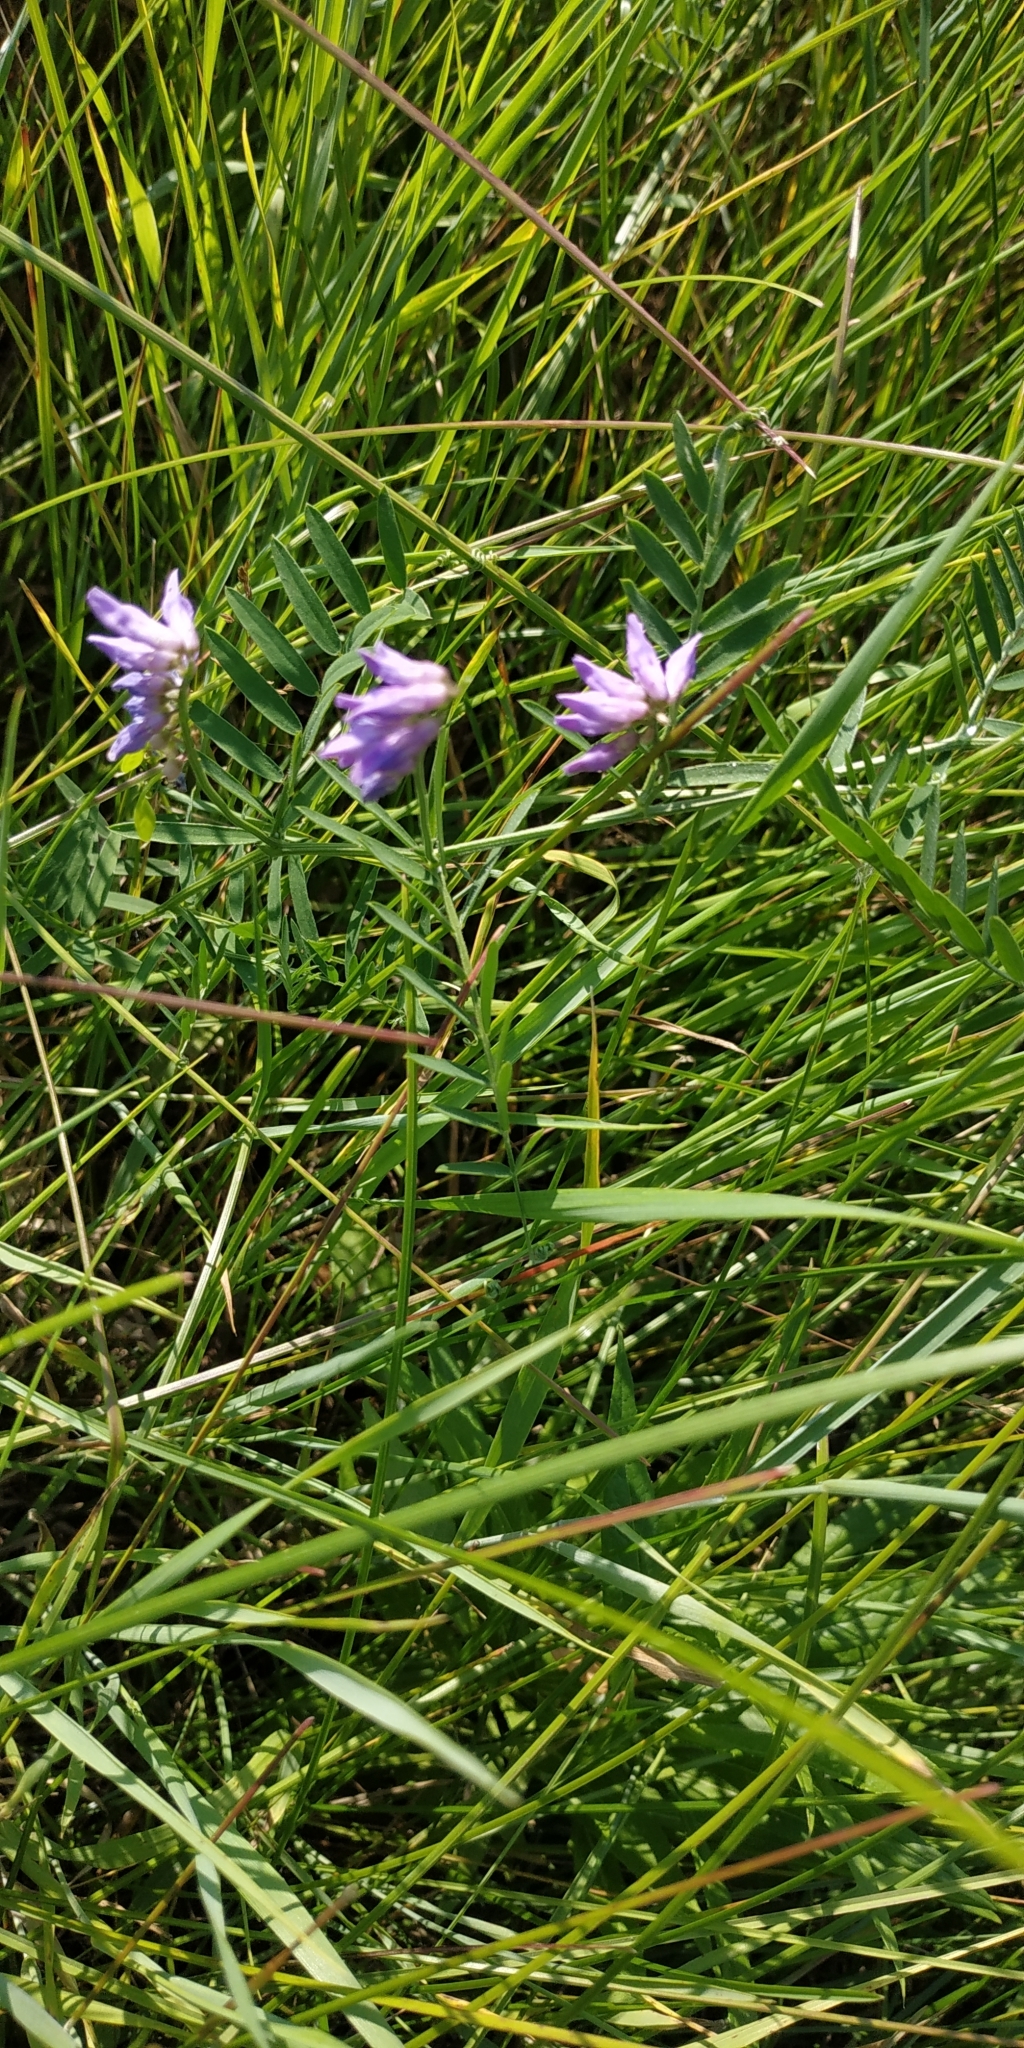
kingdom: Plantae
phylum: Tracheophyta
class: Magnoliopsida
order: Fabales
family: Fabaceae
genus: Vicia
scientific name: Vicia cracca
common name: Bird vetch
